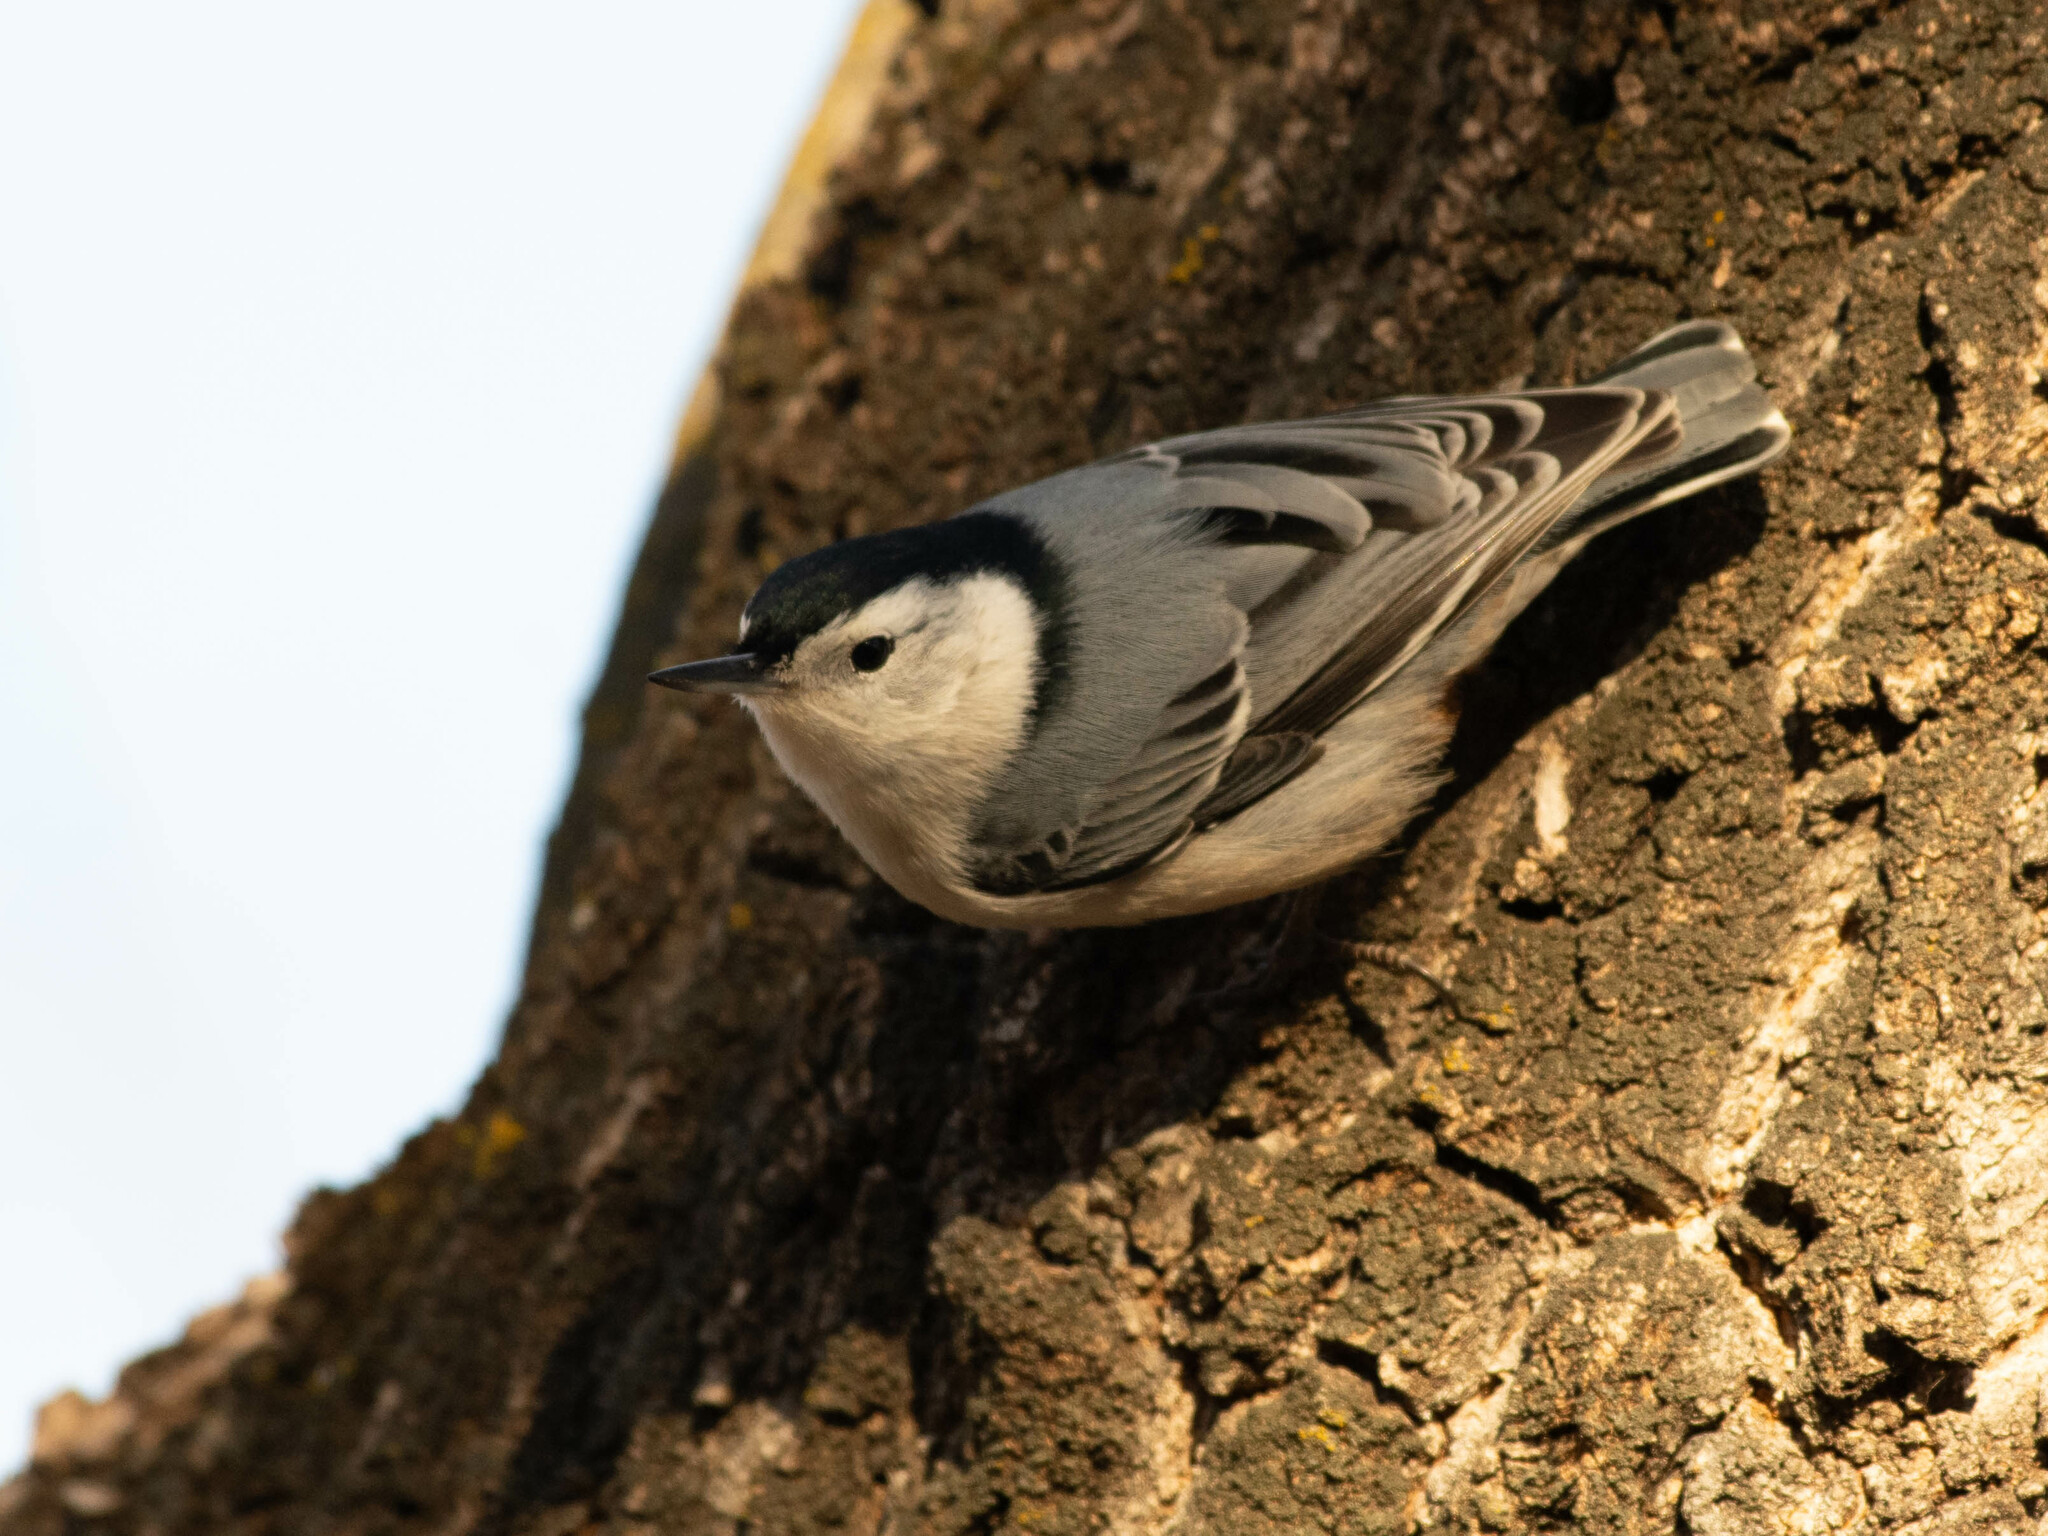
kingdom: Animalia
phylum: Chordata
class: Aves
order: Passeriformes
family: Sittidae
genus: Sitta
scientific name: Sitta carolinensis
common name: White-breasted nuthatch
